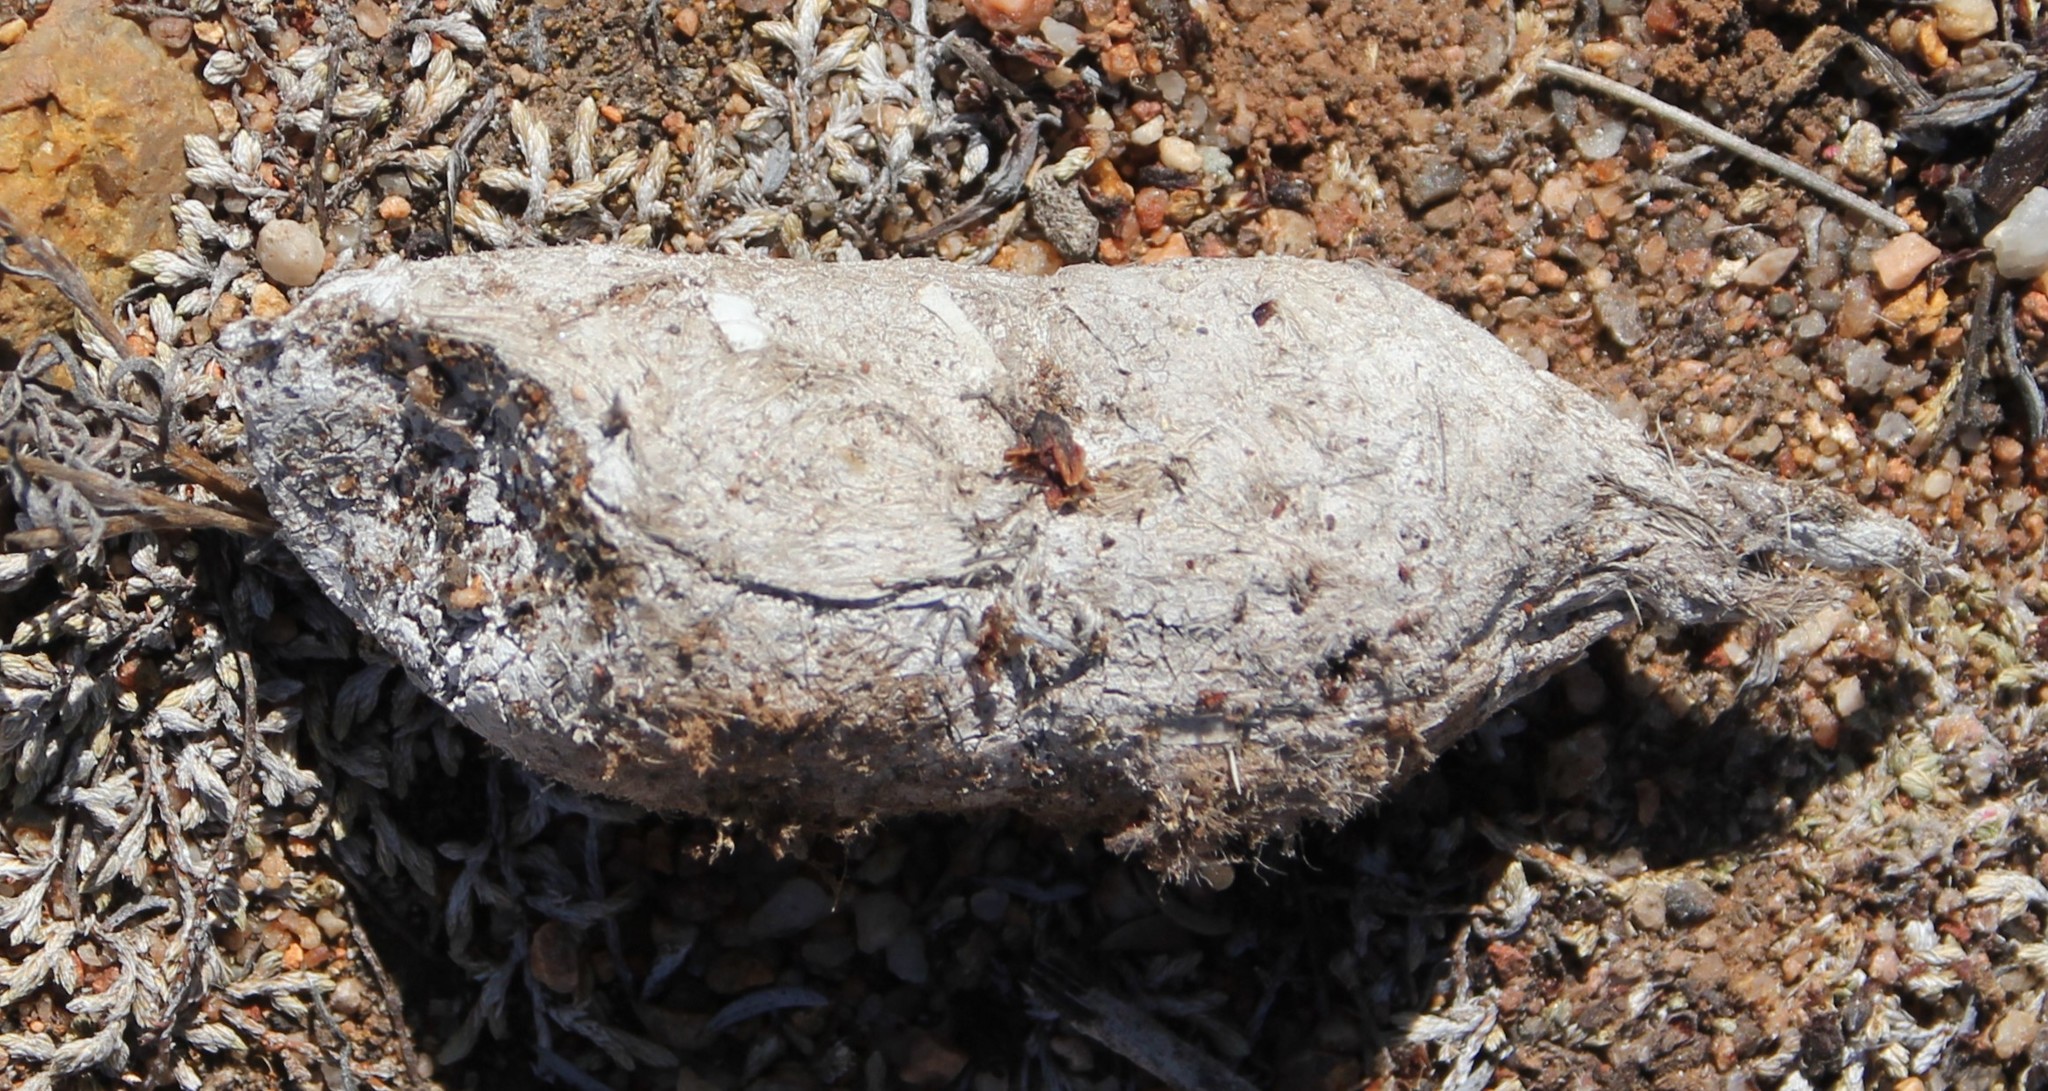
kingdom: Animalia
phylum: Chordata
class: Mammalia
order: Carnivora
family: Felidae
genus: Lynx
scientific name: Lynx rufus
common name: Bobcat
